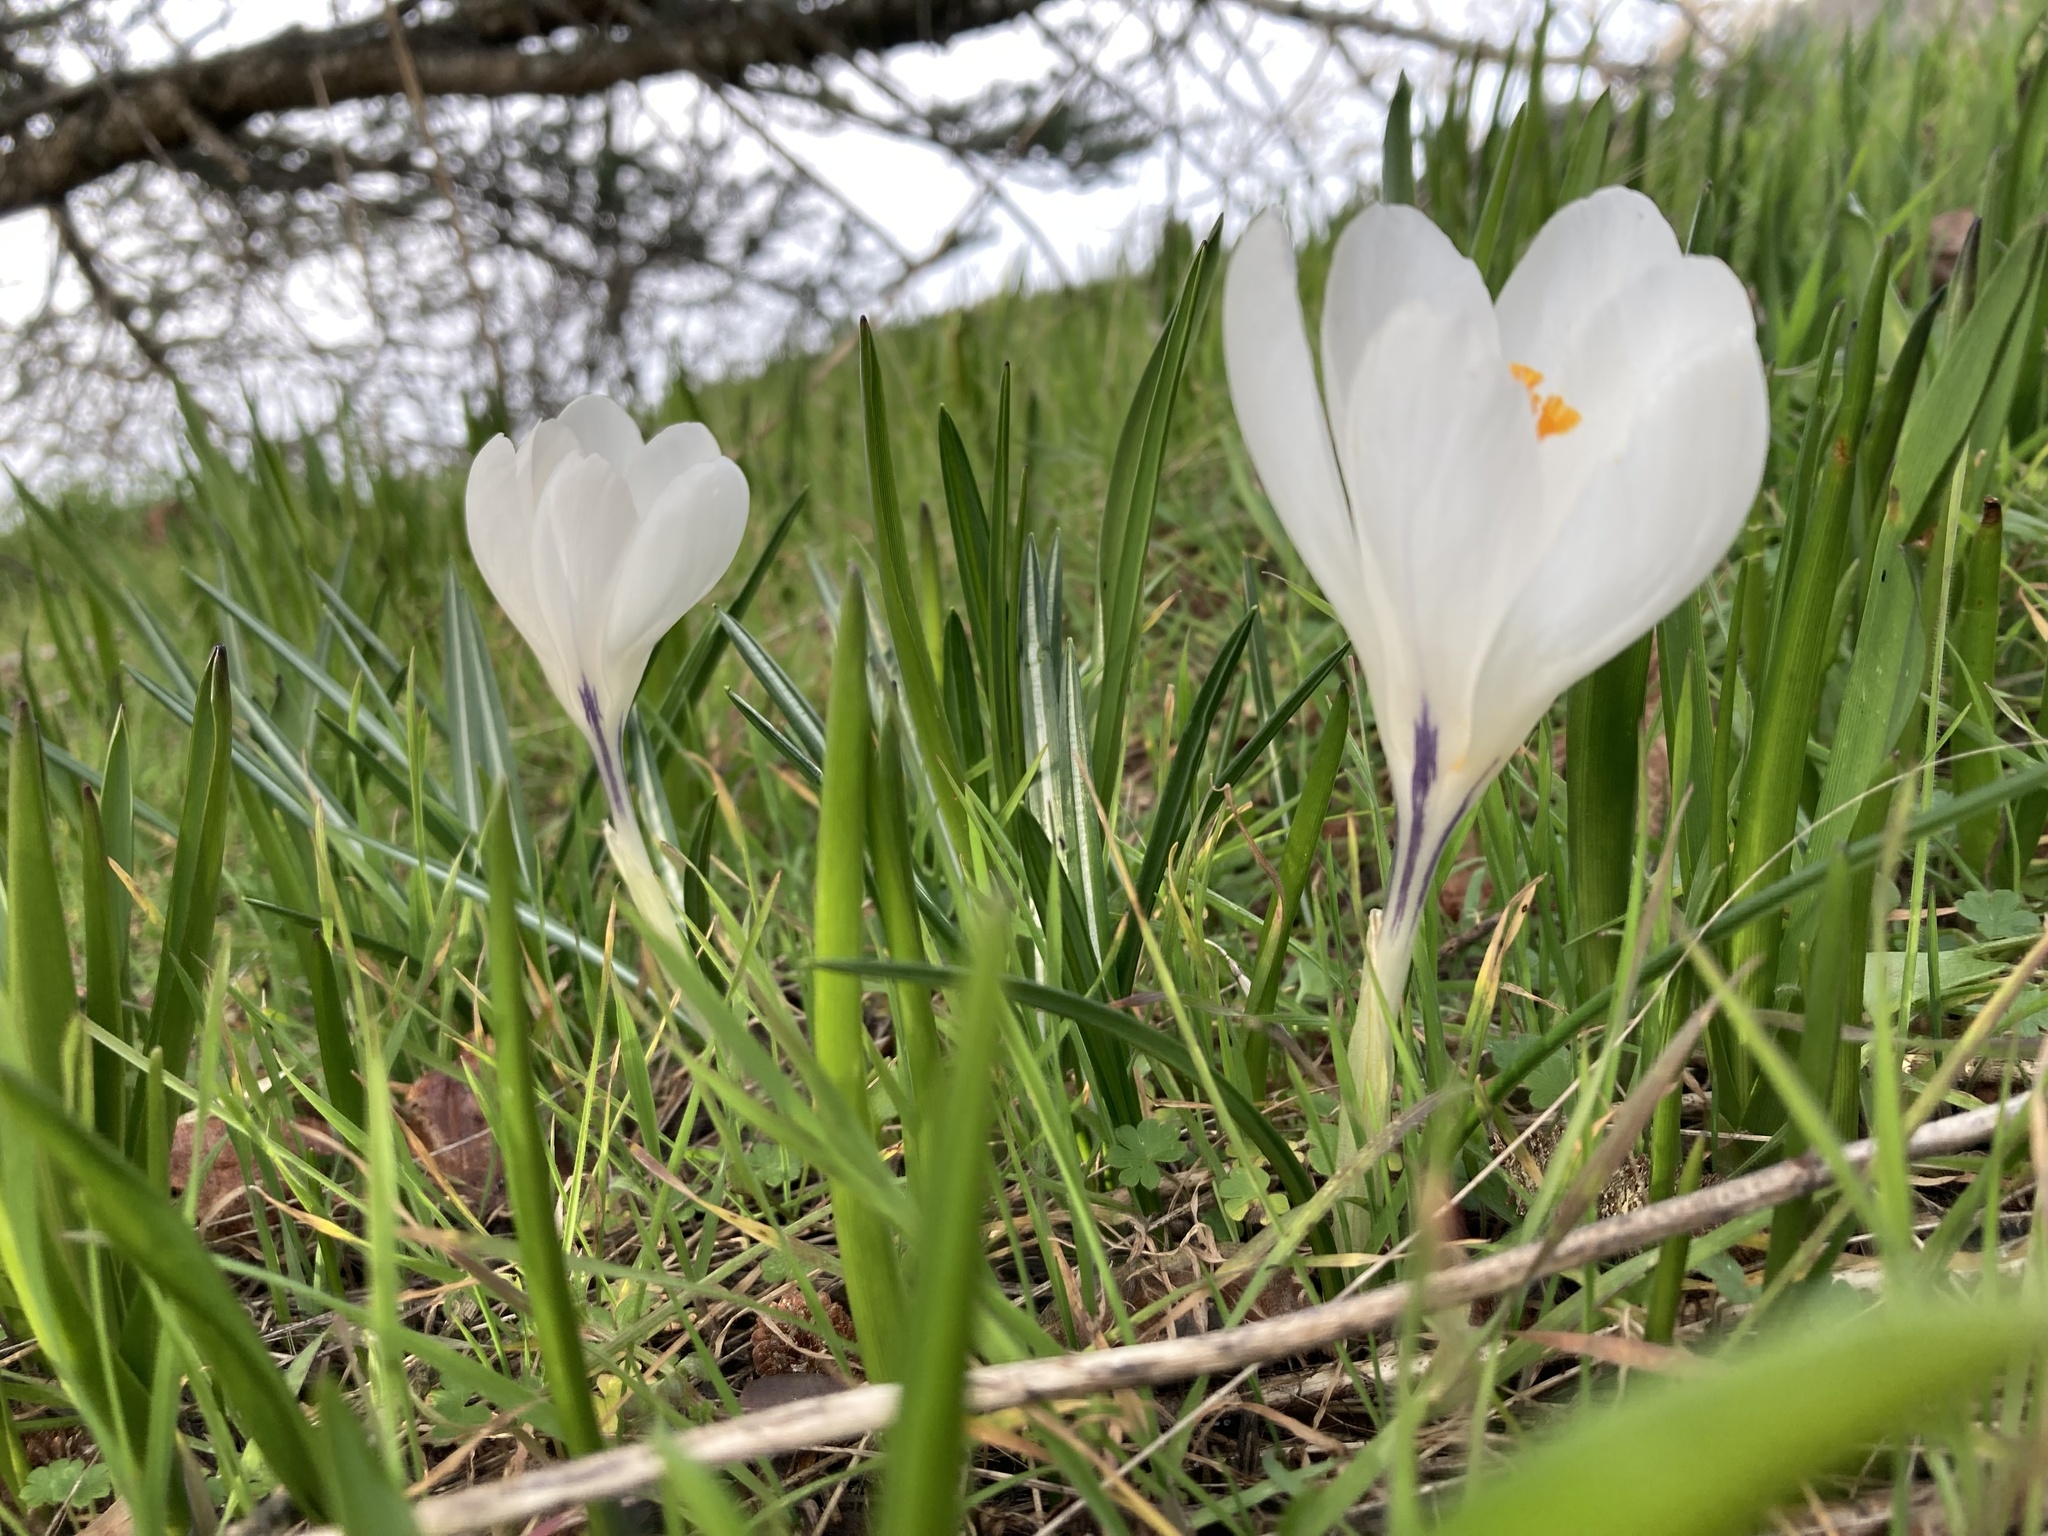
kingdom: Plantae
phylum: Tracheophyta
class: Liliopsida
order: Asparagales
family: Iridaceae
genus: Crocus
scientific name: Crocus vernus
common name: Spring crocus
